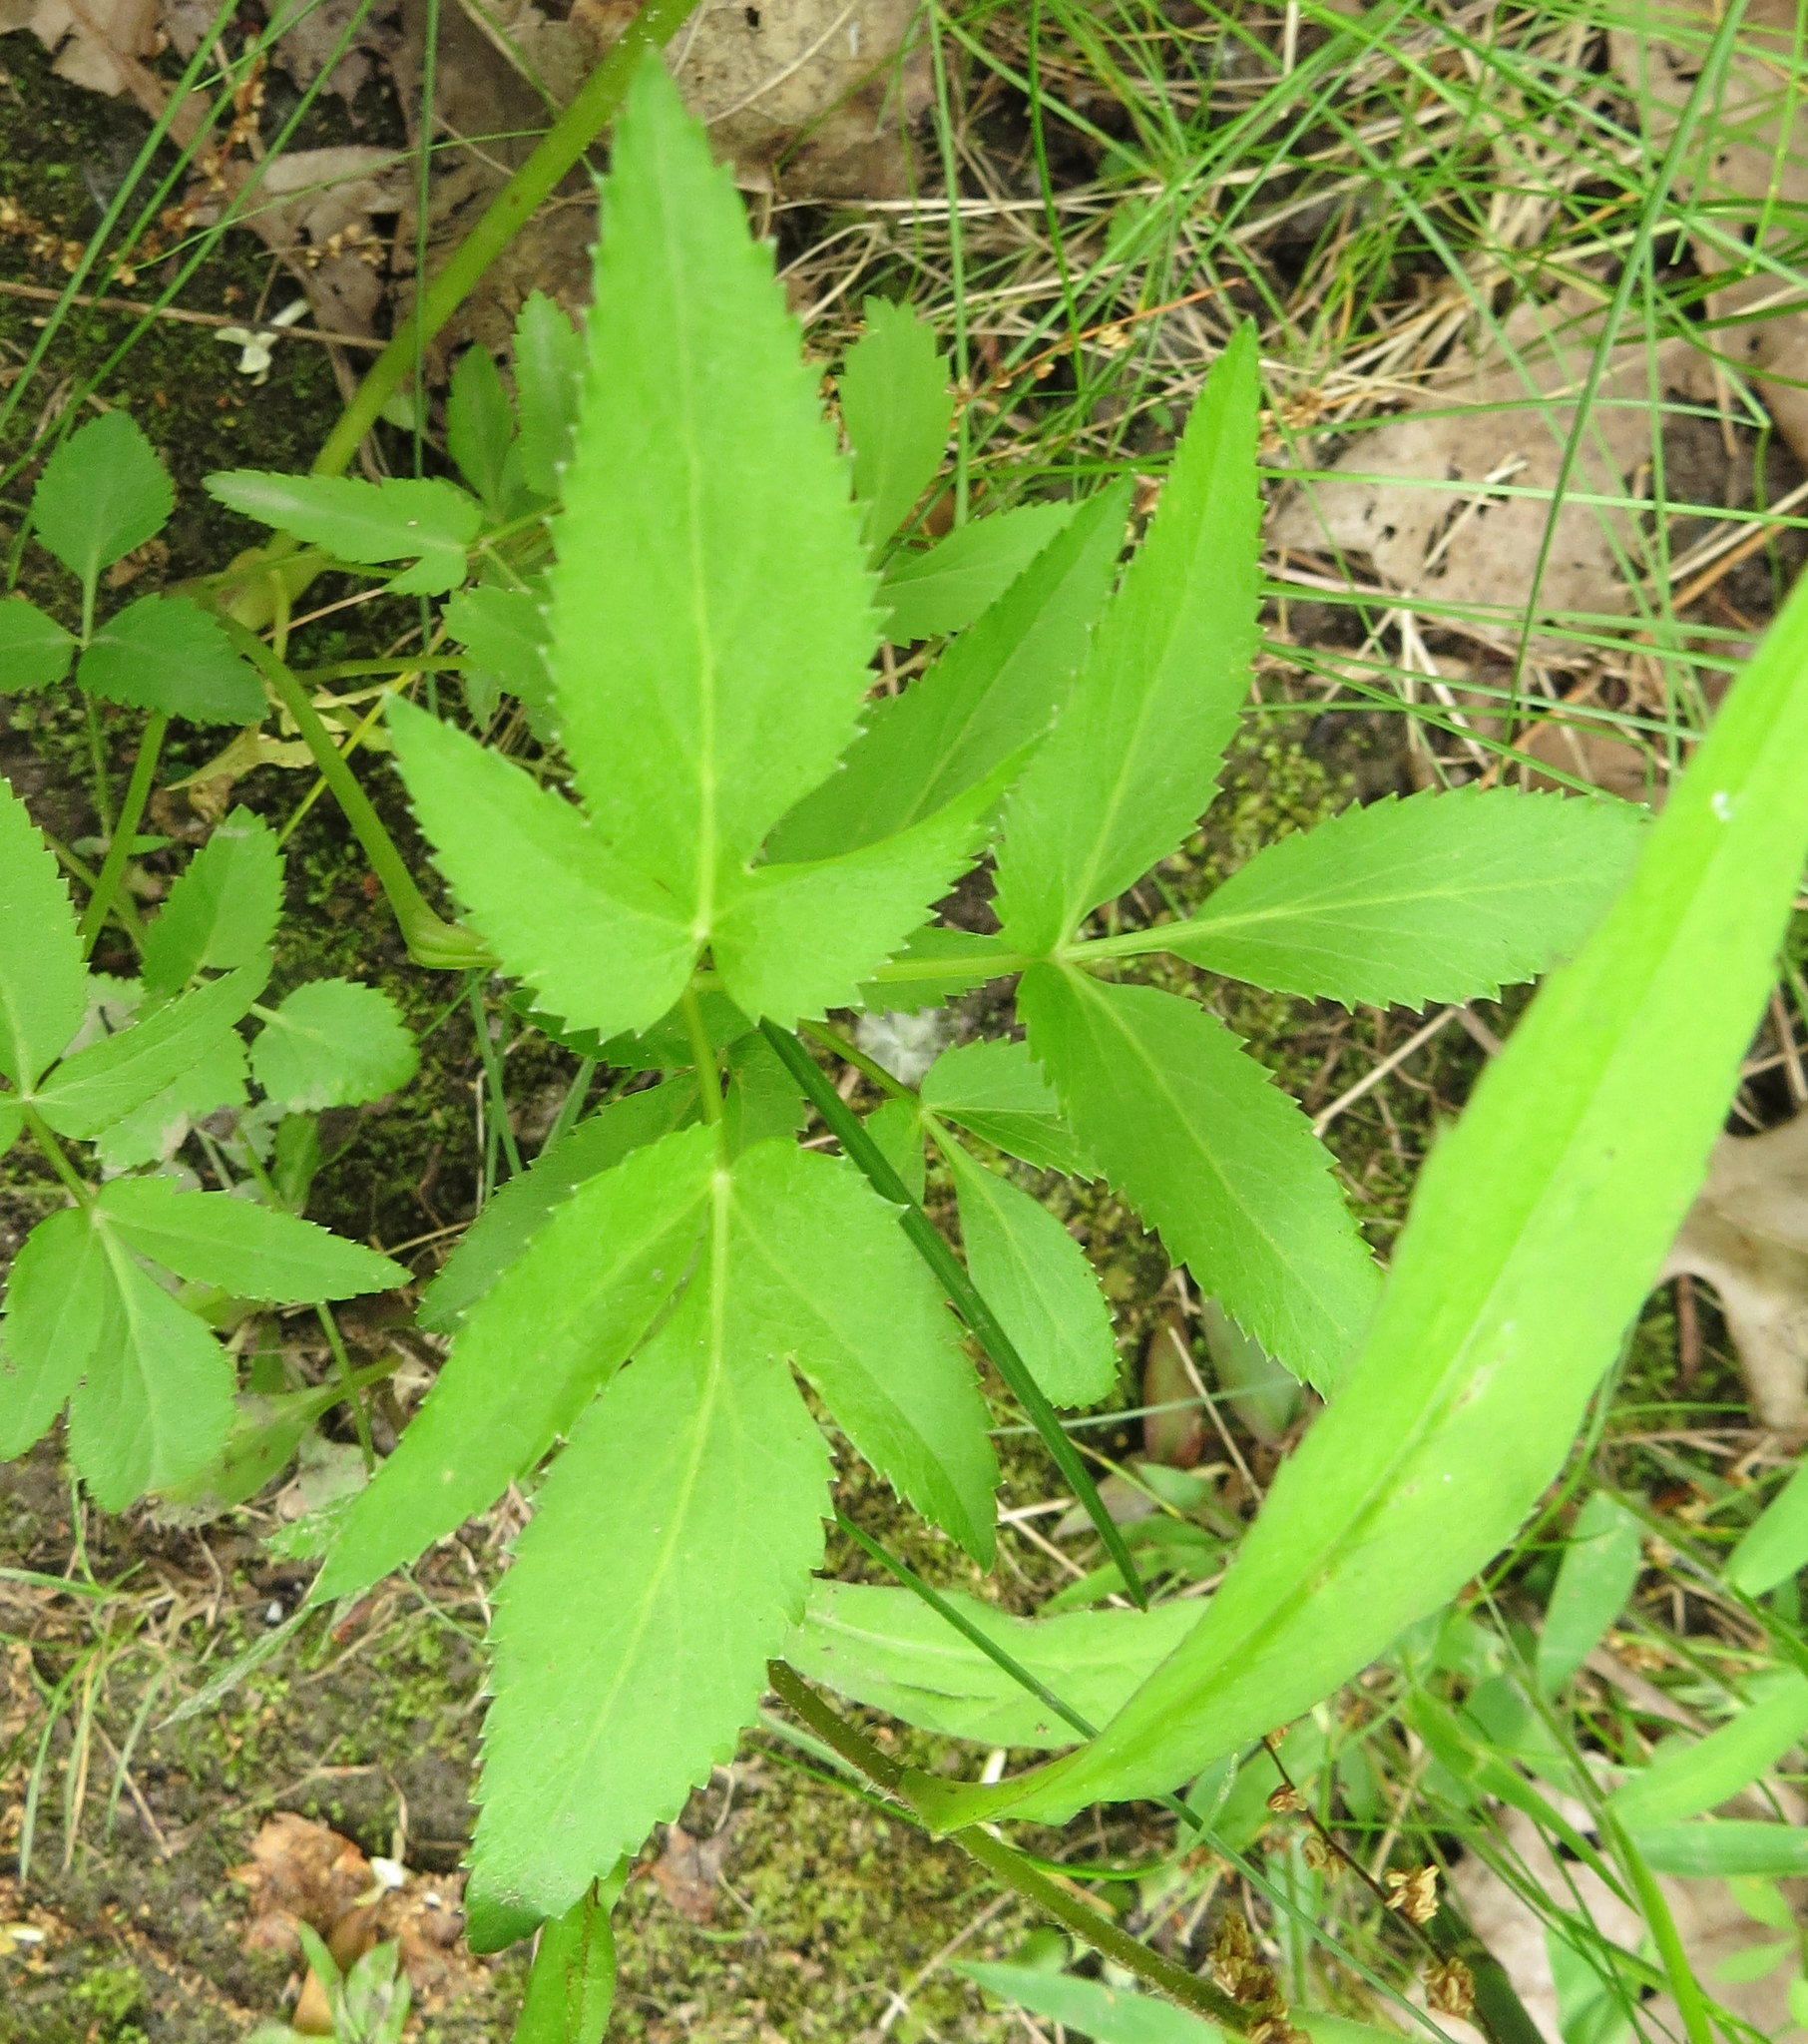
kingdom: Plantae
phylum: Tracheophyta
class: Magnoliopsida
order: Apiales
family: Apiaceae
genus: Zizia
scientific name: Zizia aurea
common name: Golden alexanders
